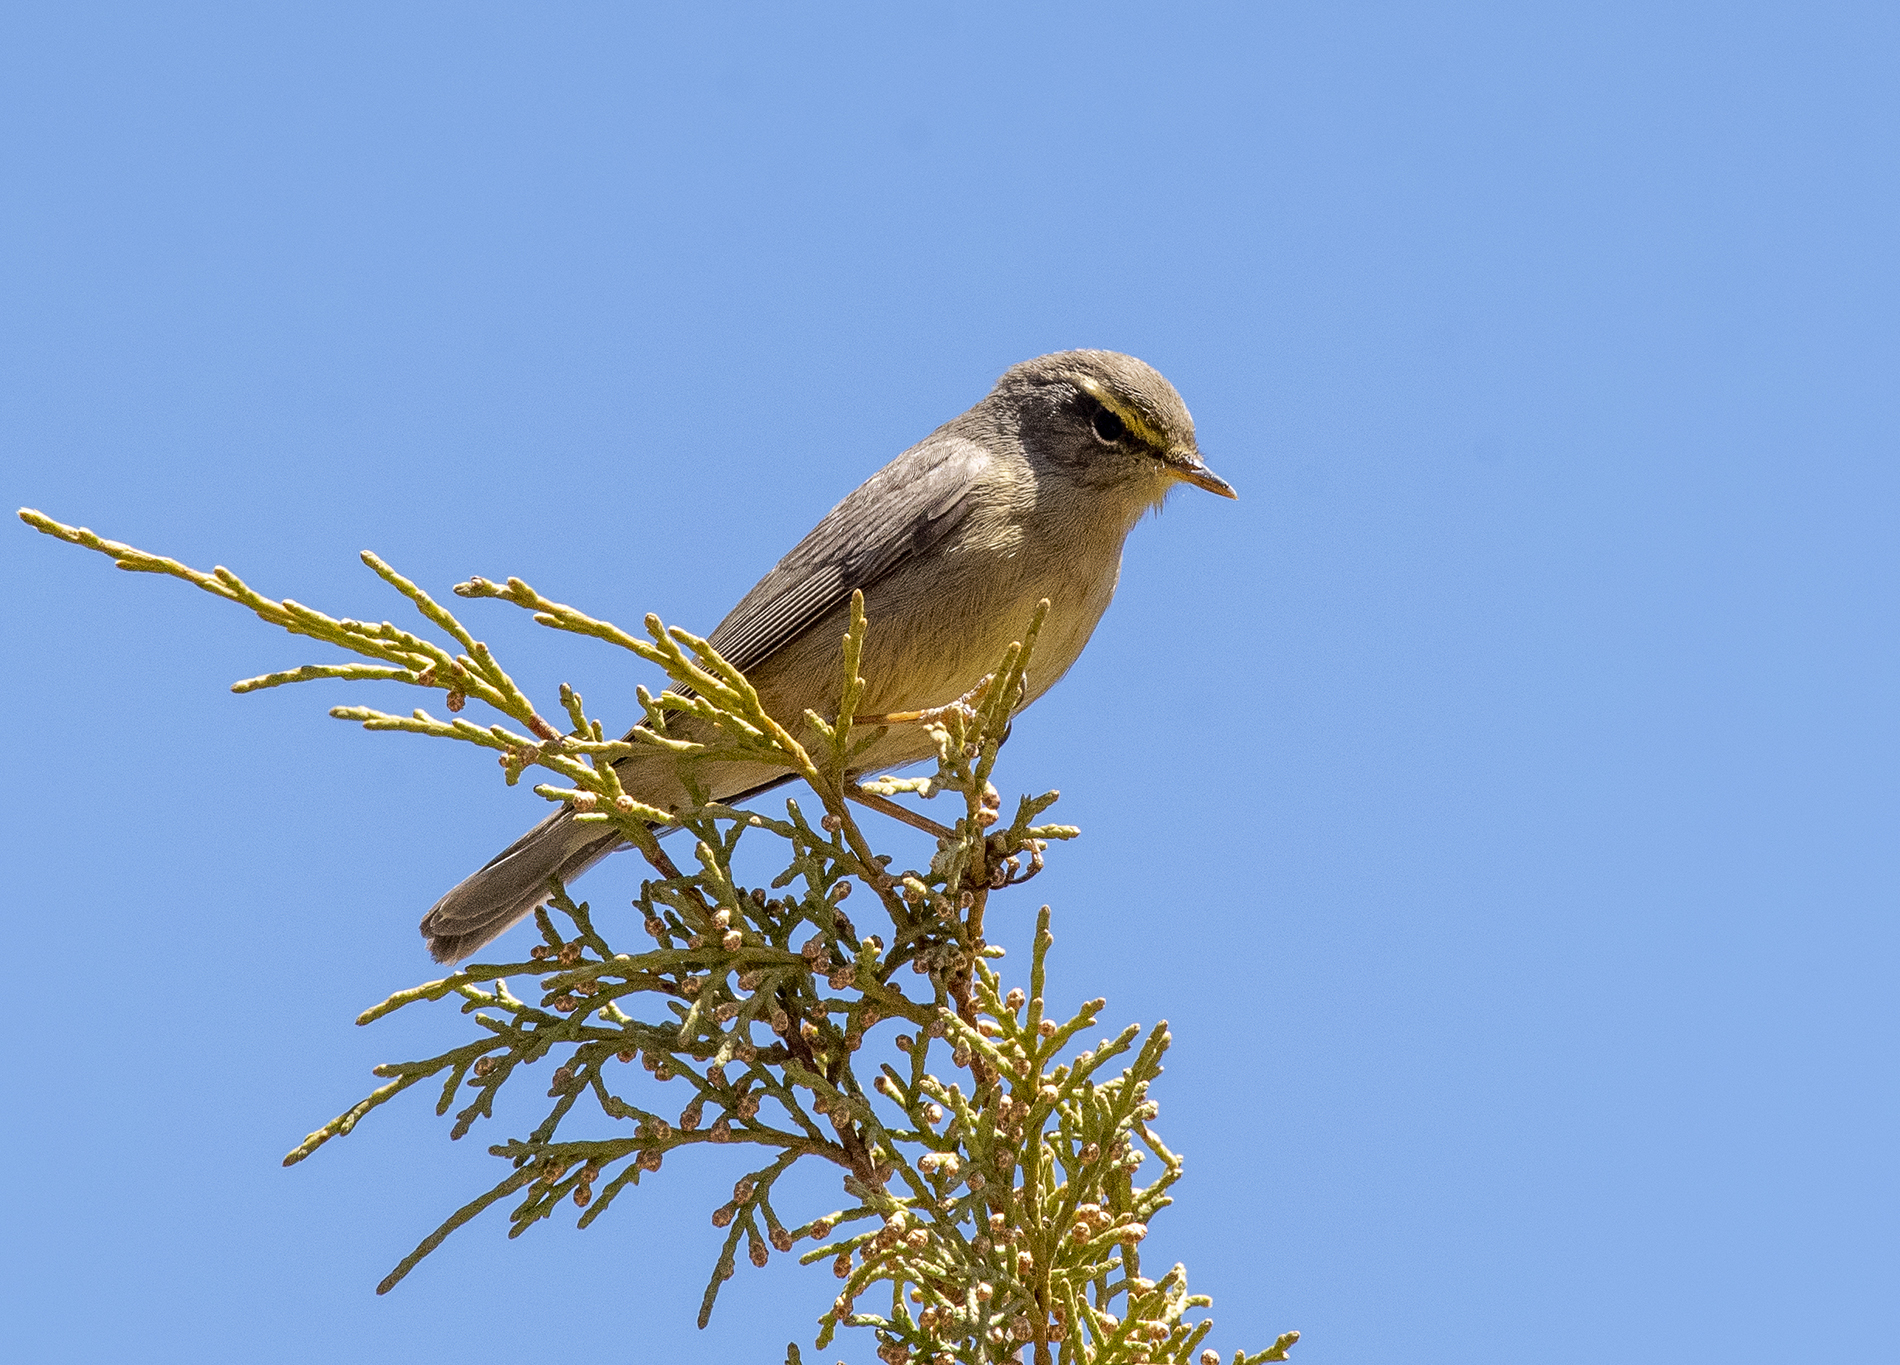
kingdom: Animalia
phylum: Chordata
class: Aves
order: Passeriformes
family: Phylloscopidae
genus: Phylloscopus
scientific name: Phylloscopus griseolus
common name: Sulphur-bellied warbler
